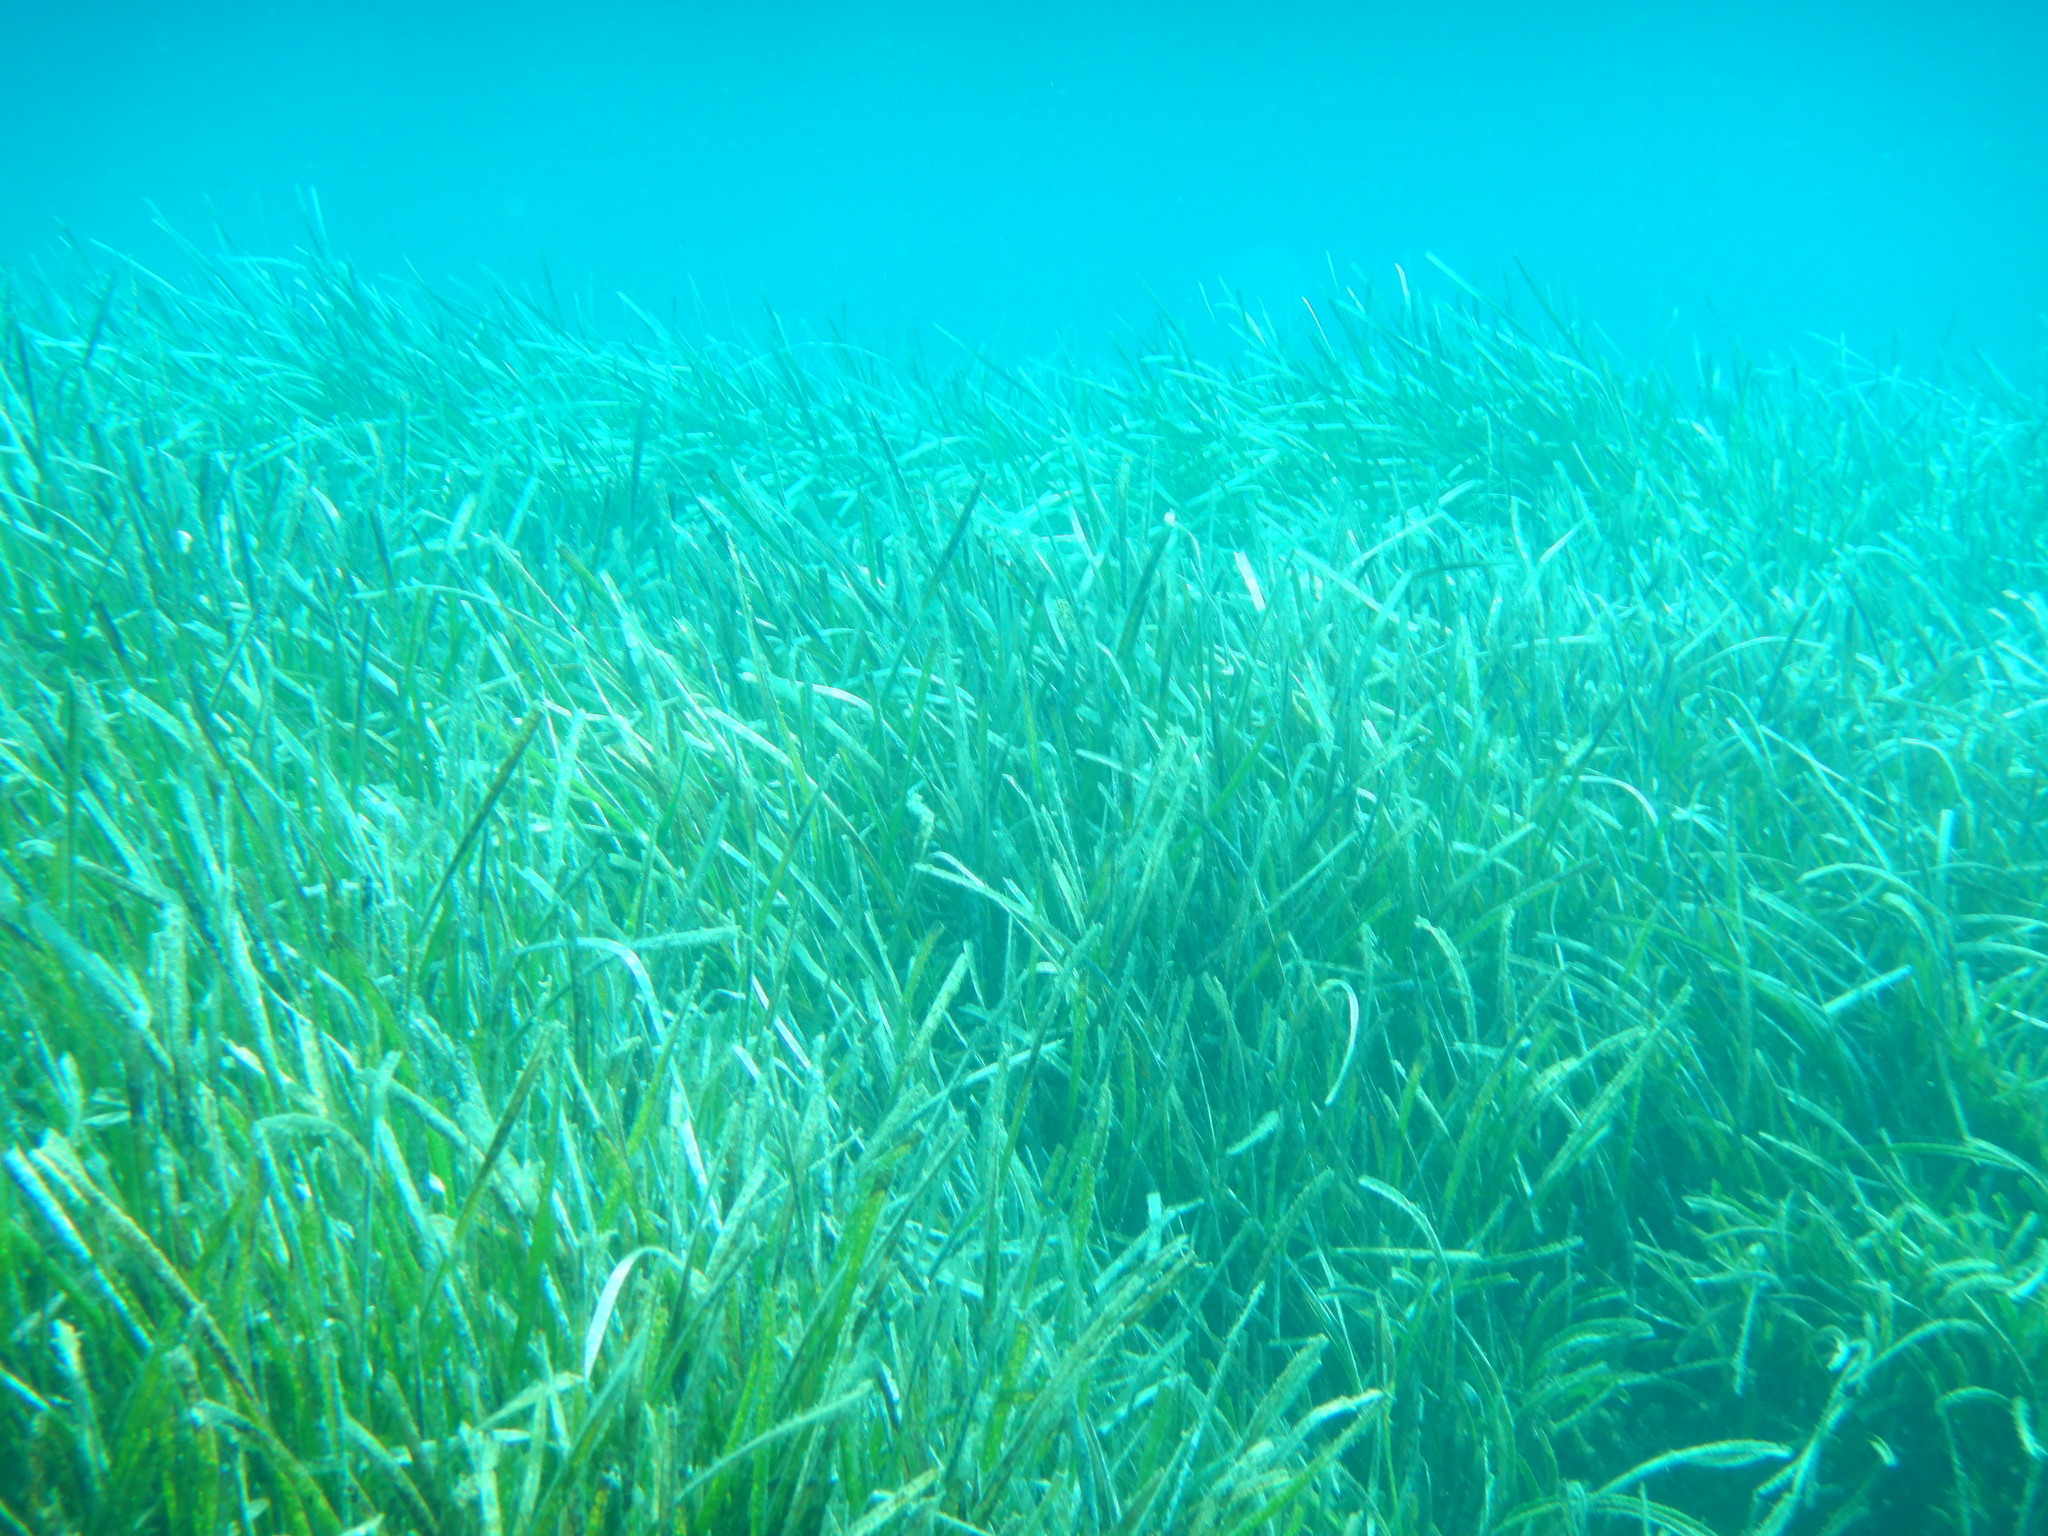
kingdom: Plantae
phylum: Tracheophyta
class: Liliopsida
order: Alismatales
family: Posidoniaceae
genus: Posidonia
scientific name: Posidonia oceanica
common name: Mediterranean tapeweed
